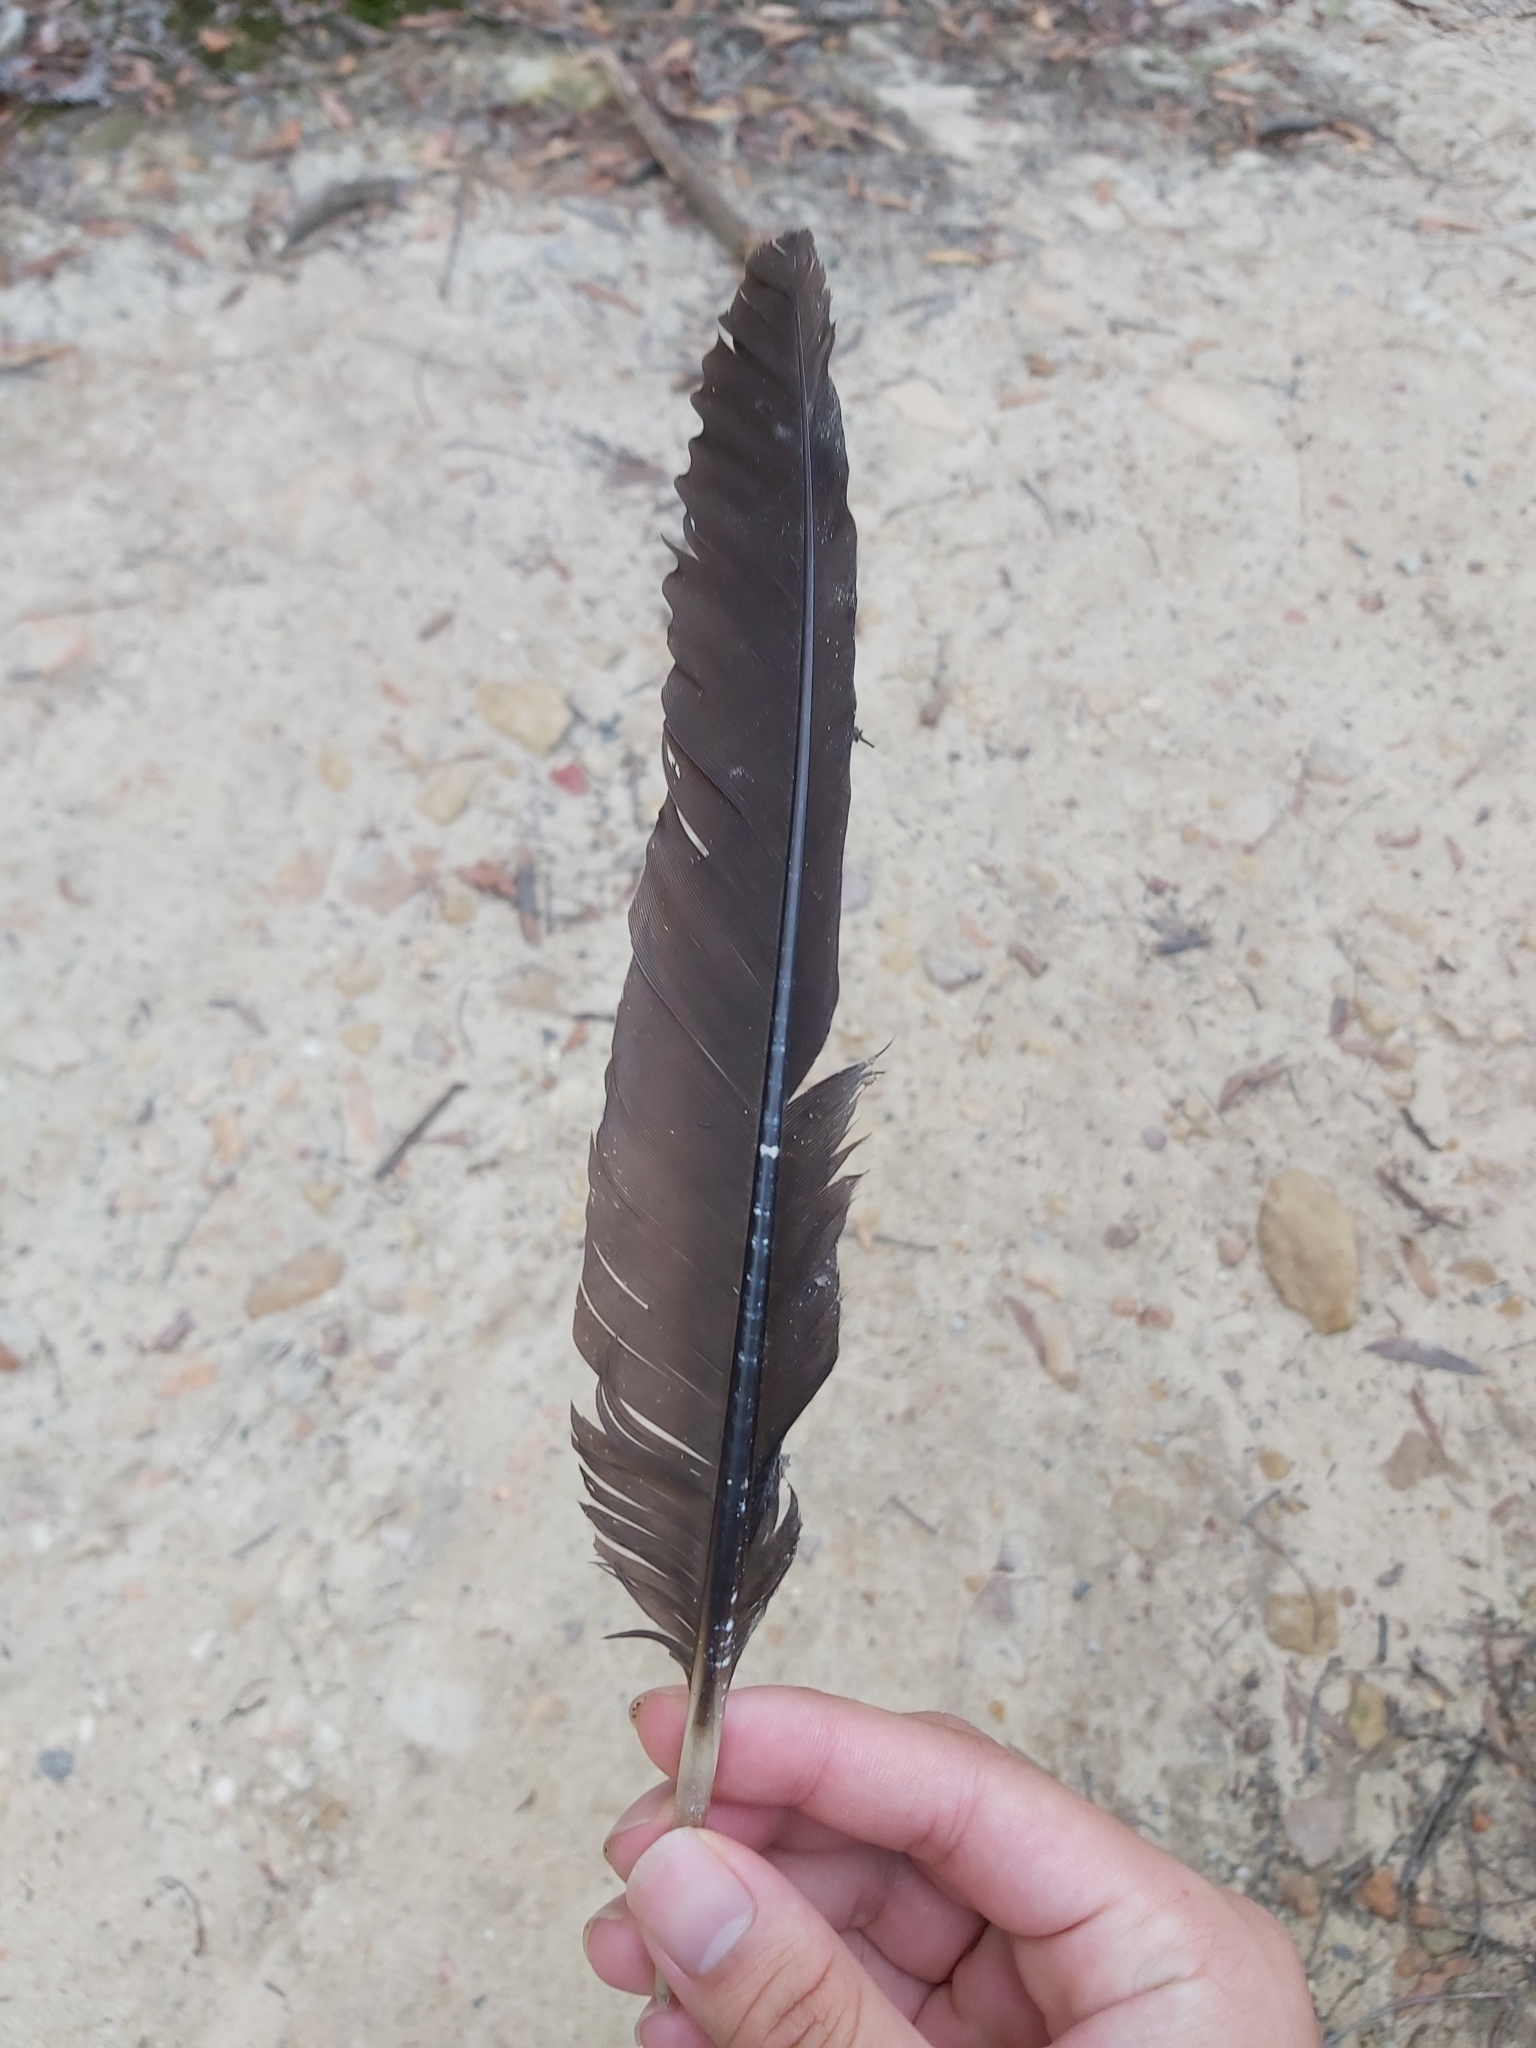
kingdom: Animalia
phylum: Chordata
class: Aves
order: Galliformes
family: Megapodiidae
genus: Alectura
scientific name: Alectura lathami
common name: Australian brushturkey
